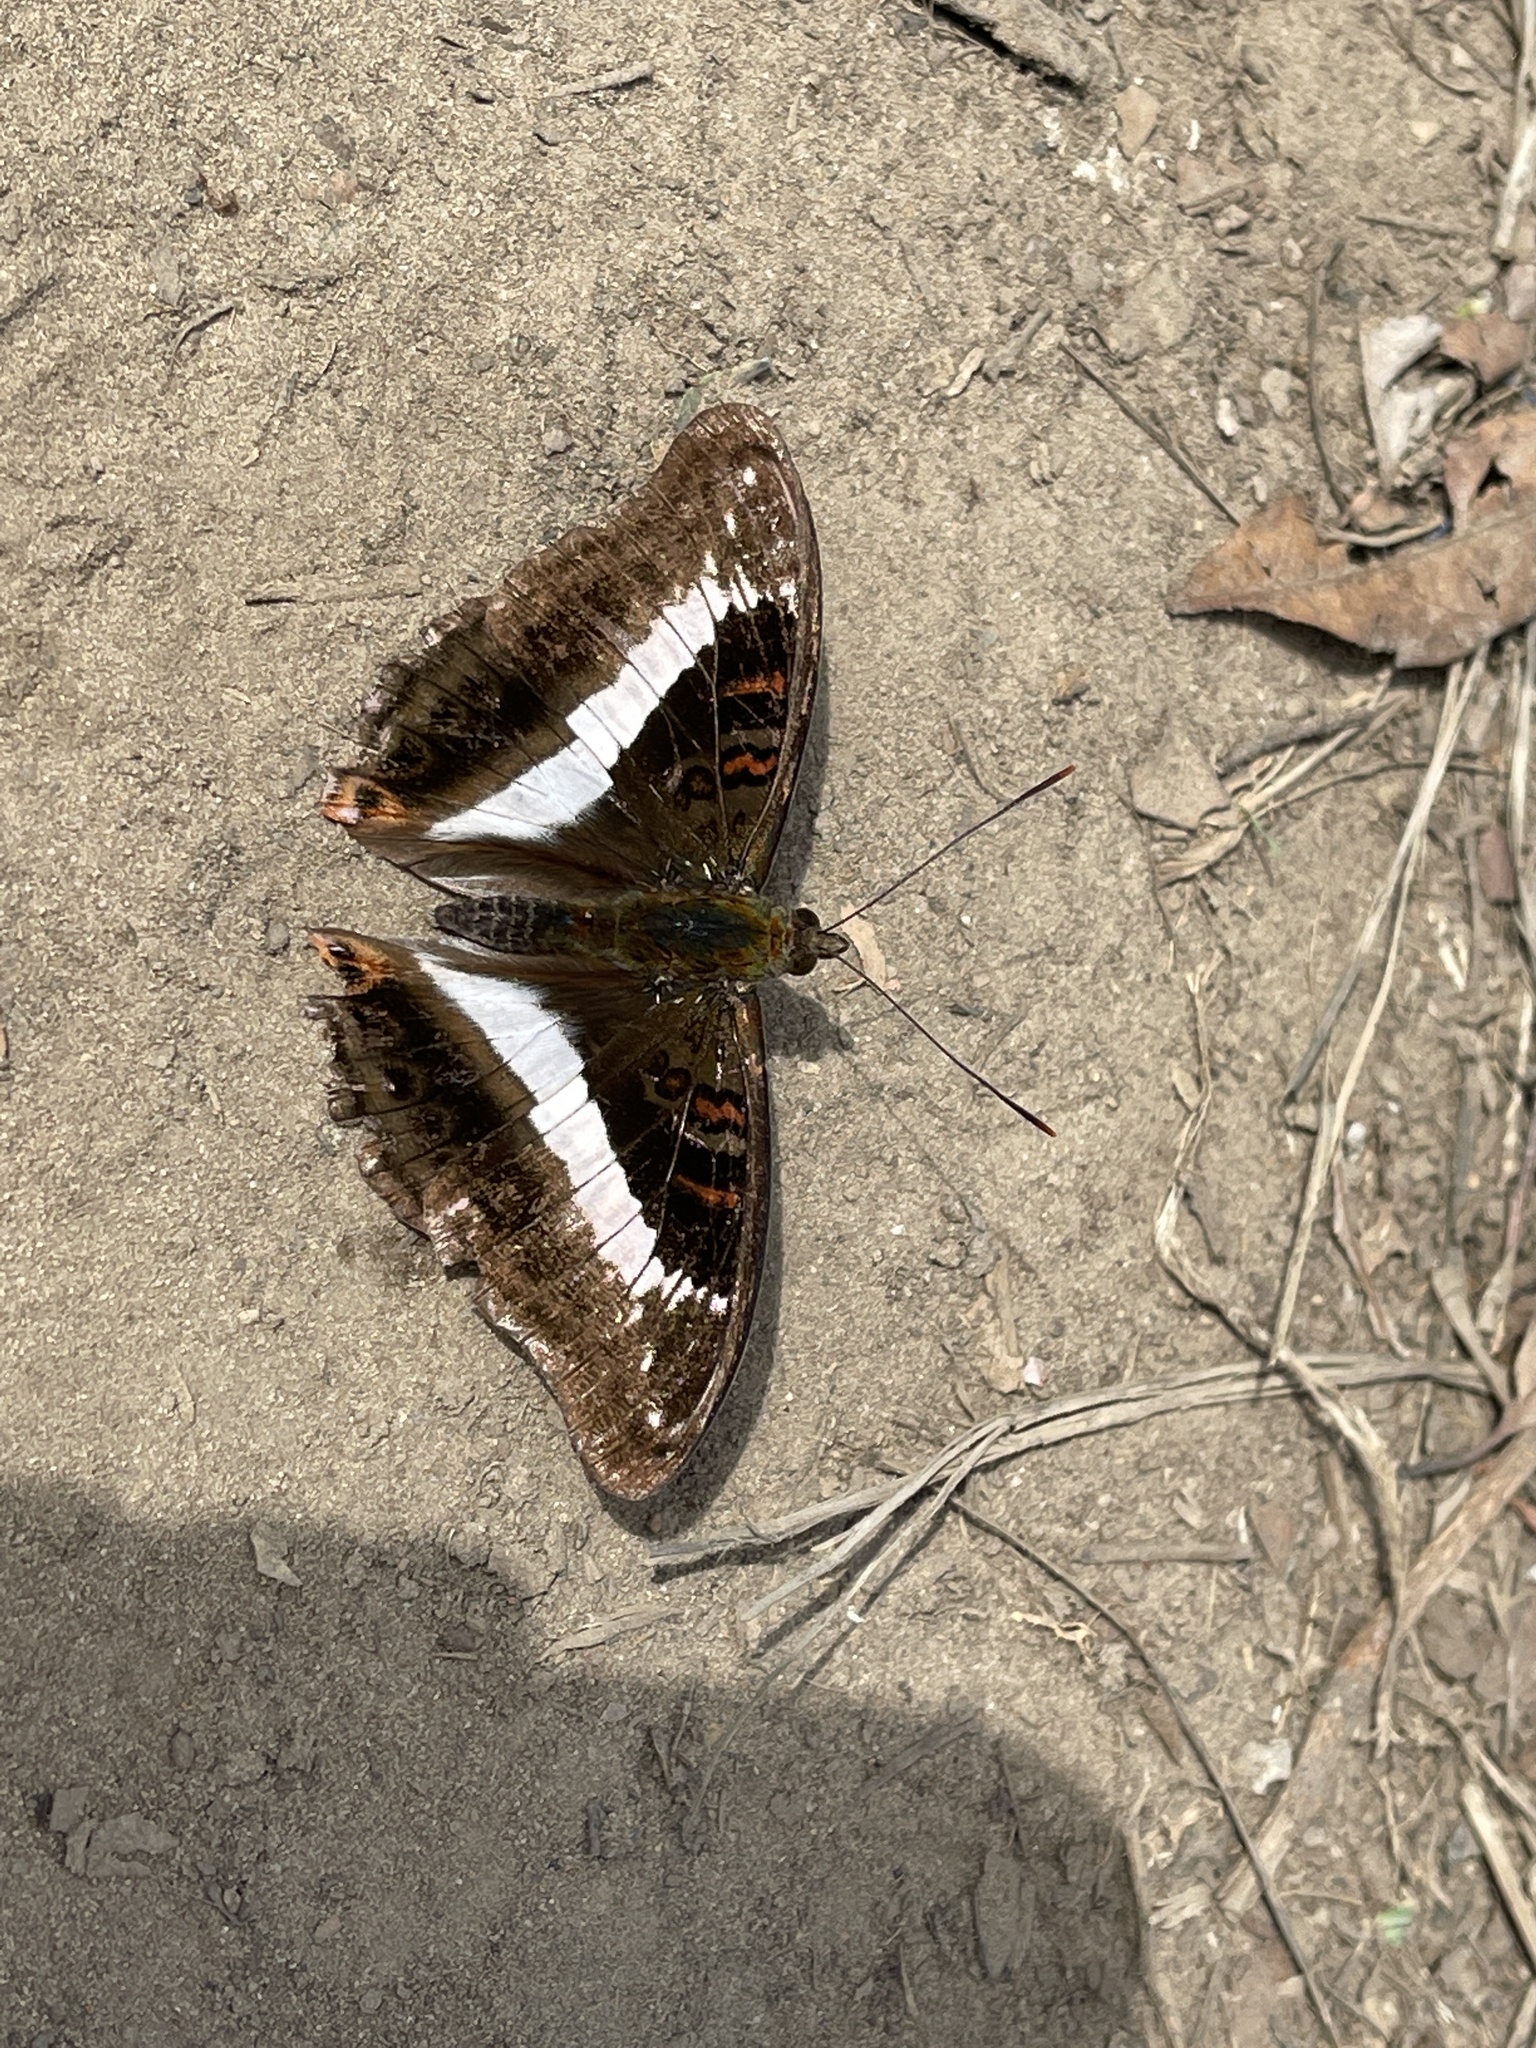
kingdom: Animalia
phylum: Arthropoda
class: Insecta
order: Lepidoptera
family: Nymphalidae
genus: Limenitis
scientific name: Limenitis dudu
